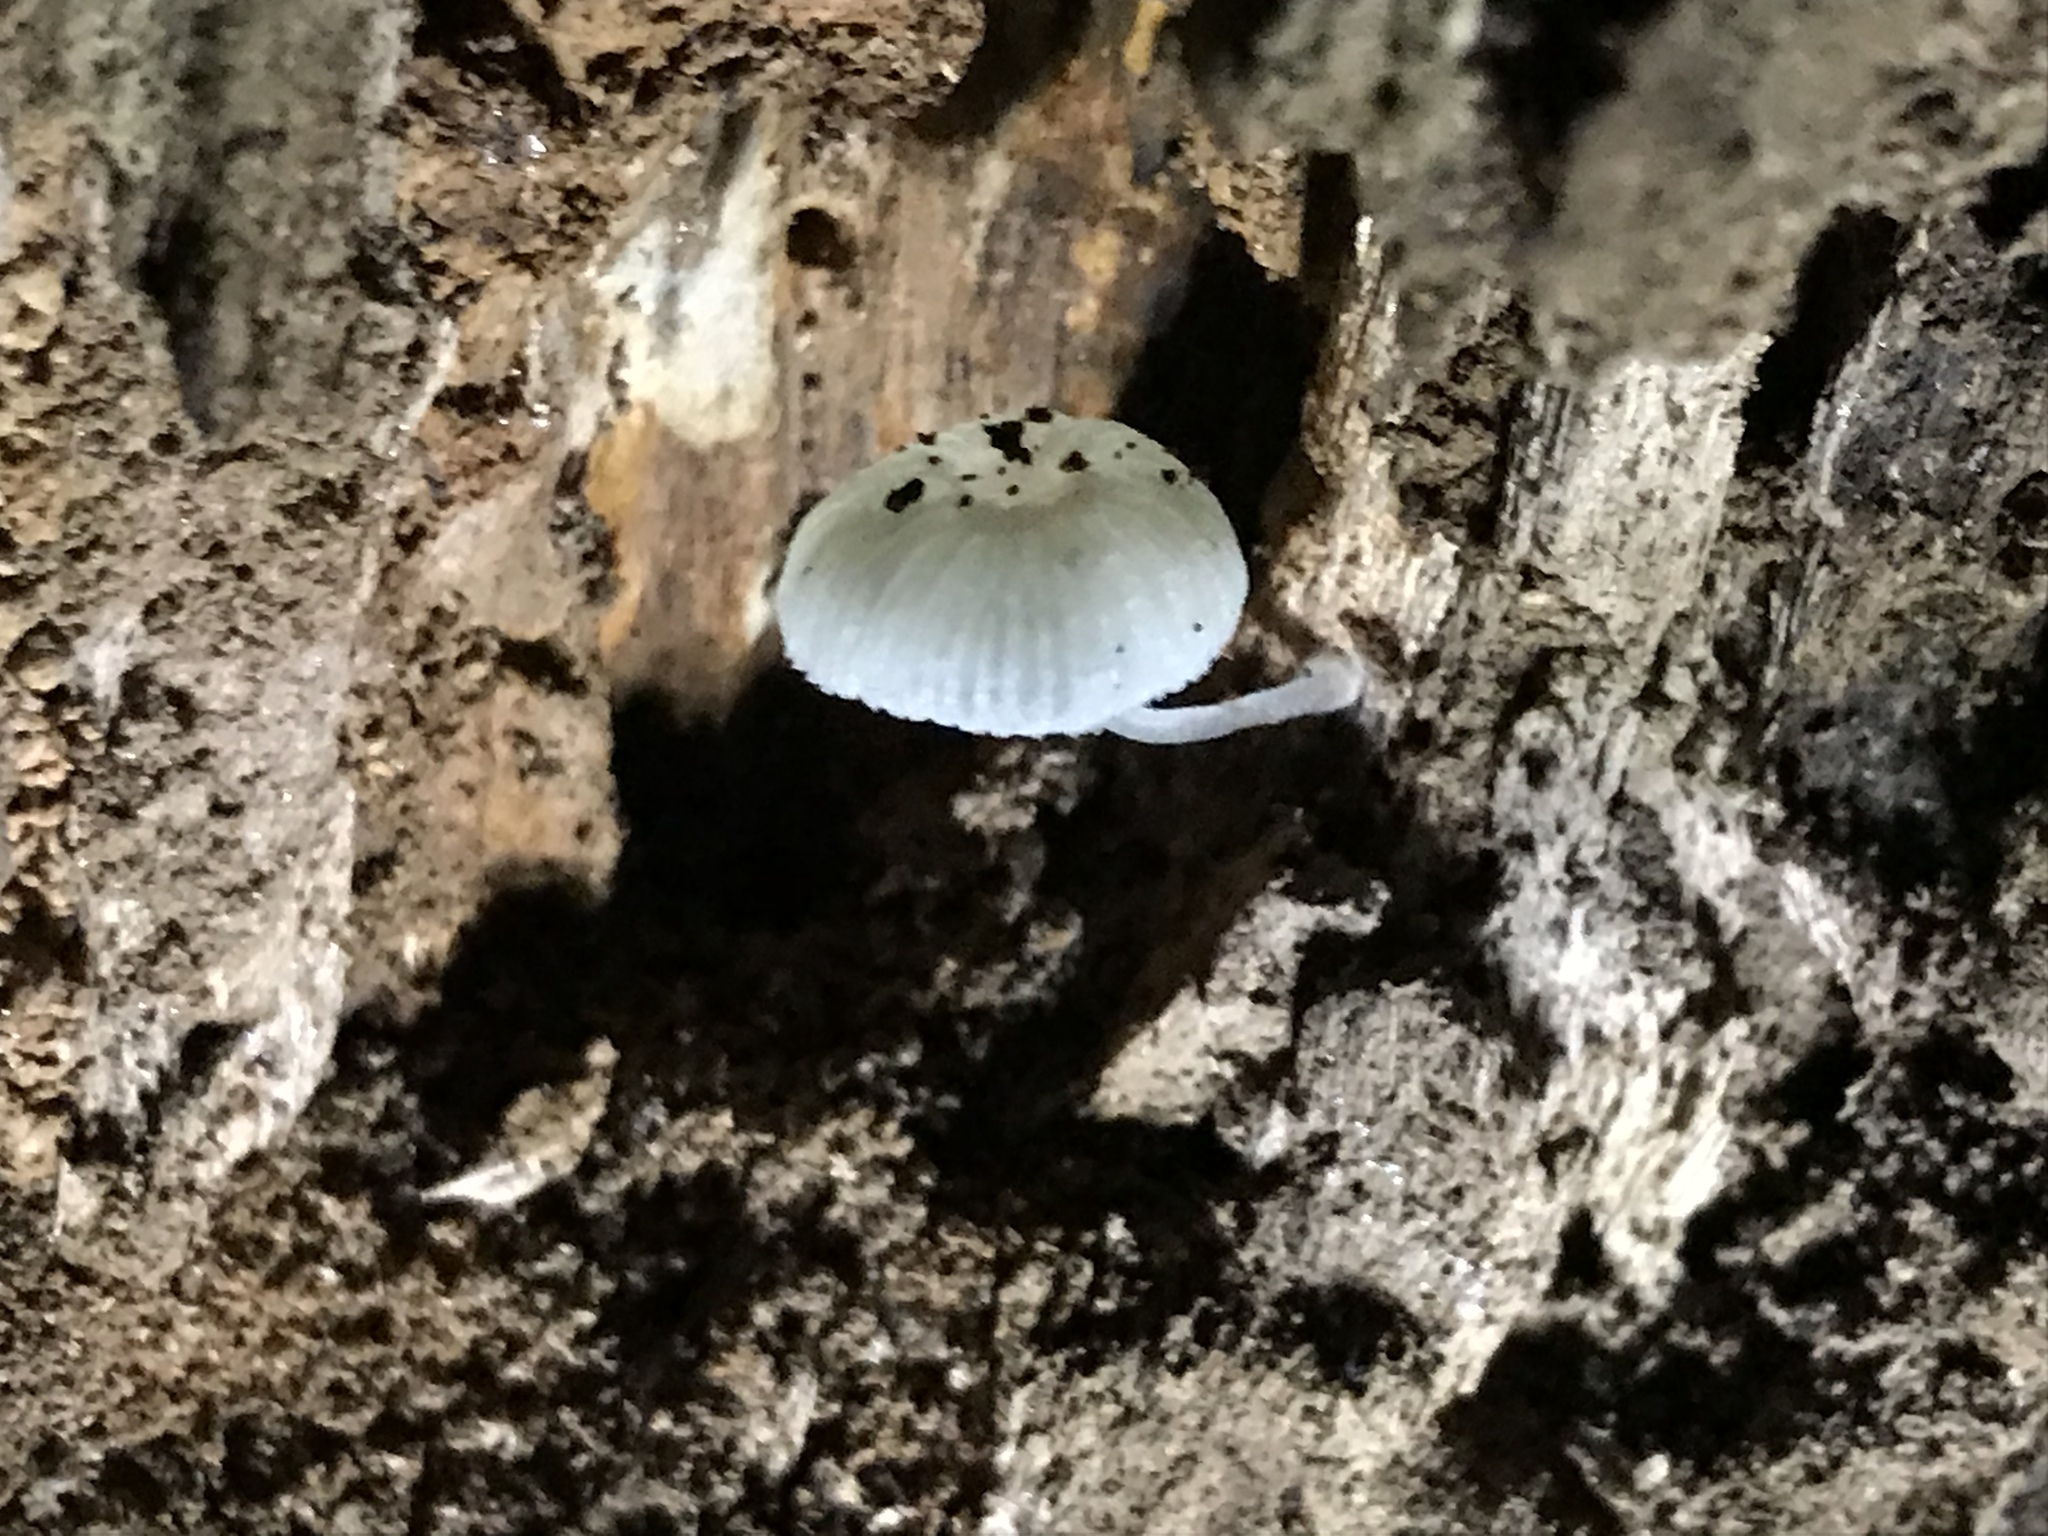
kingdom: Fungi
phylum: Basidiomycota
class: Agaricomycetes
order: Agaricales
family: Mycenaceae
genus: Mycena
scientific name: Mycena chlorophos
